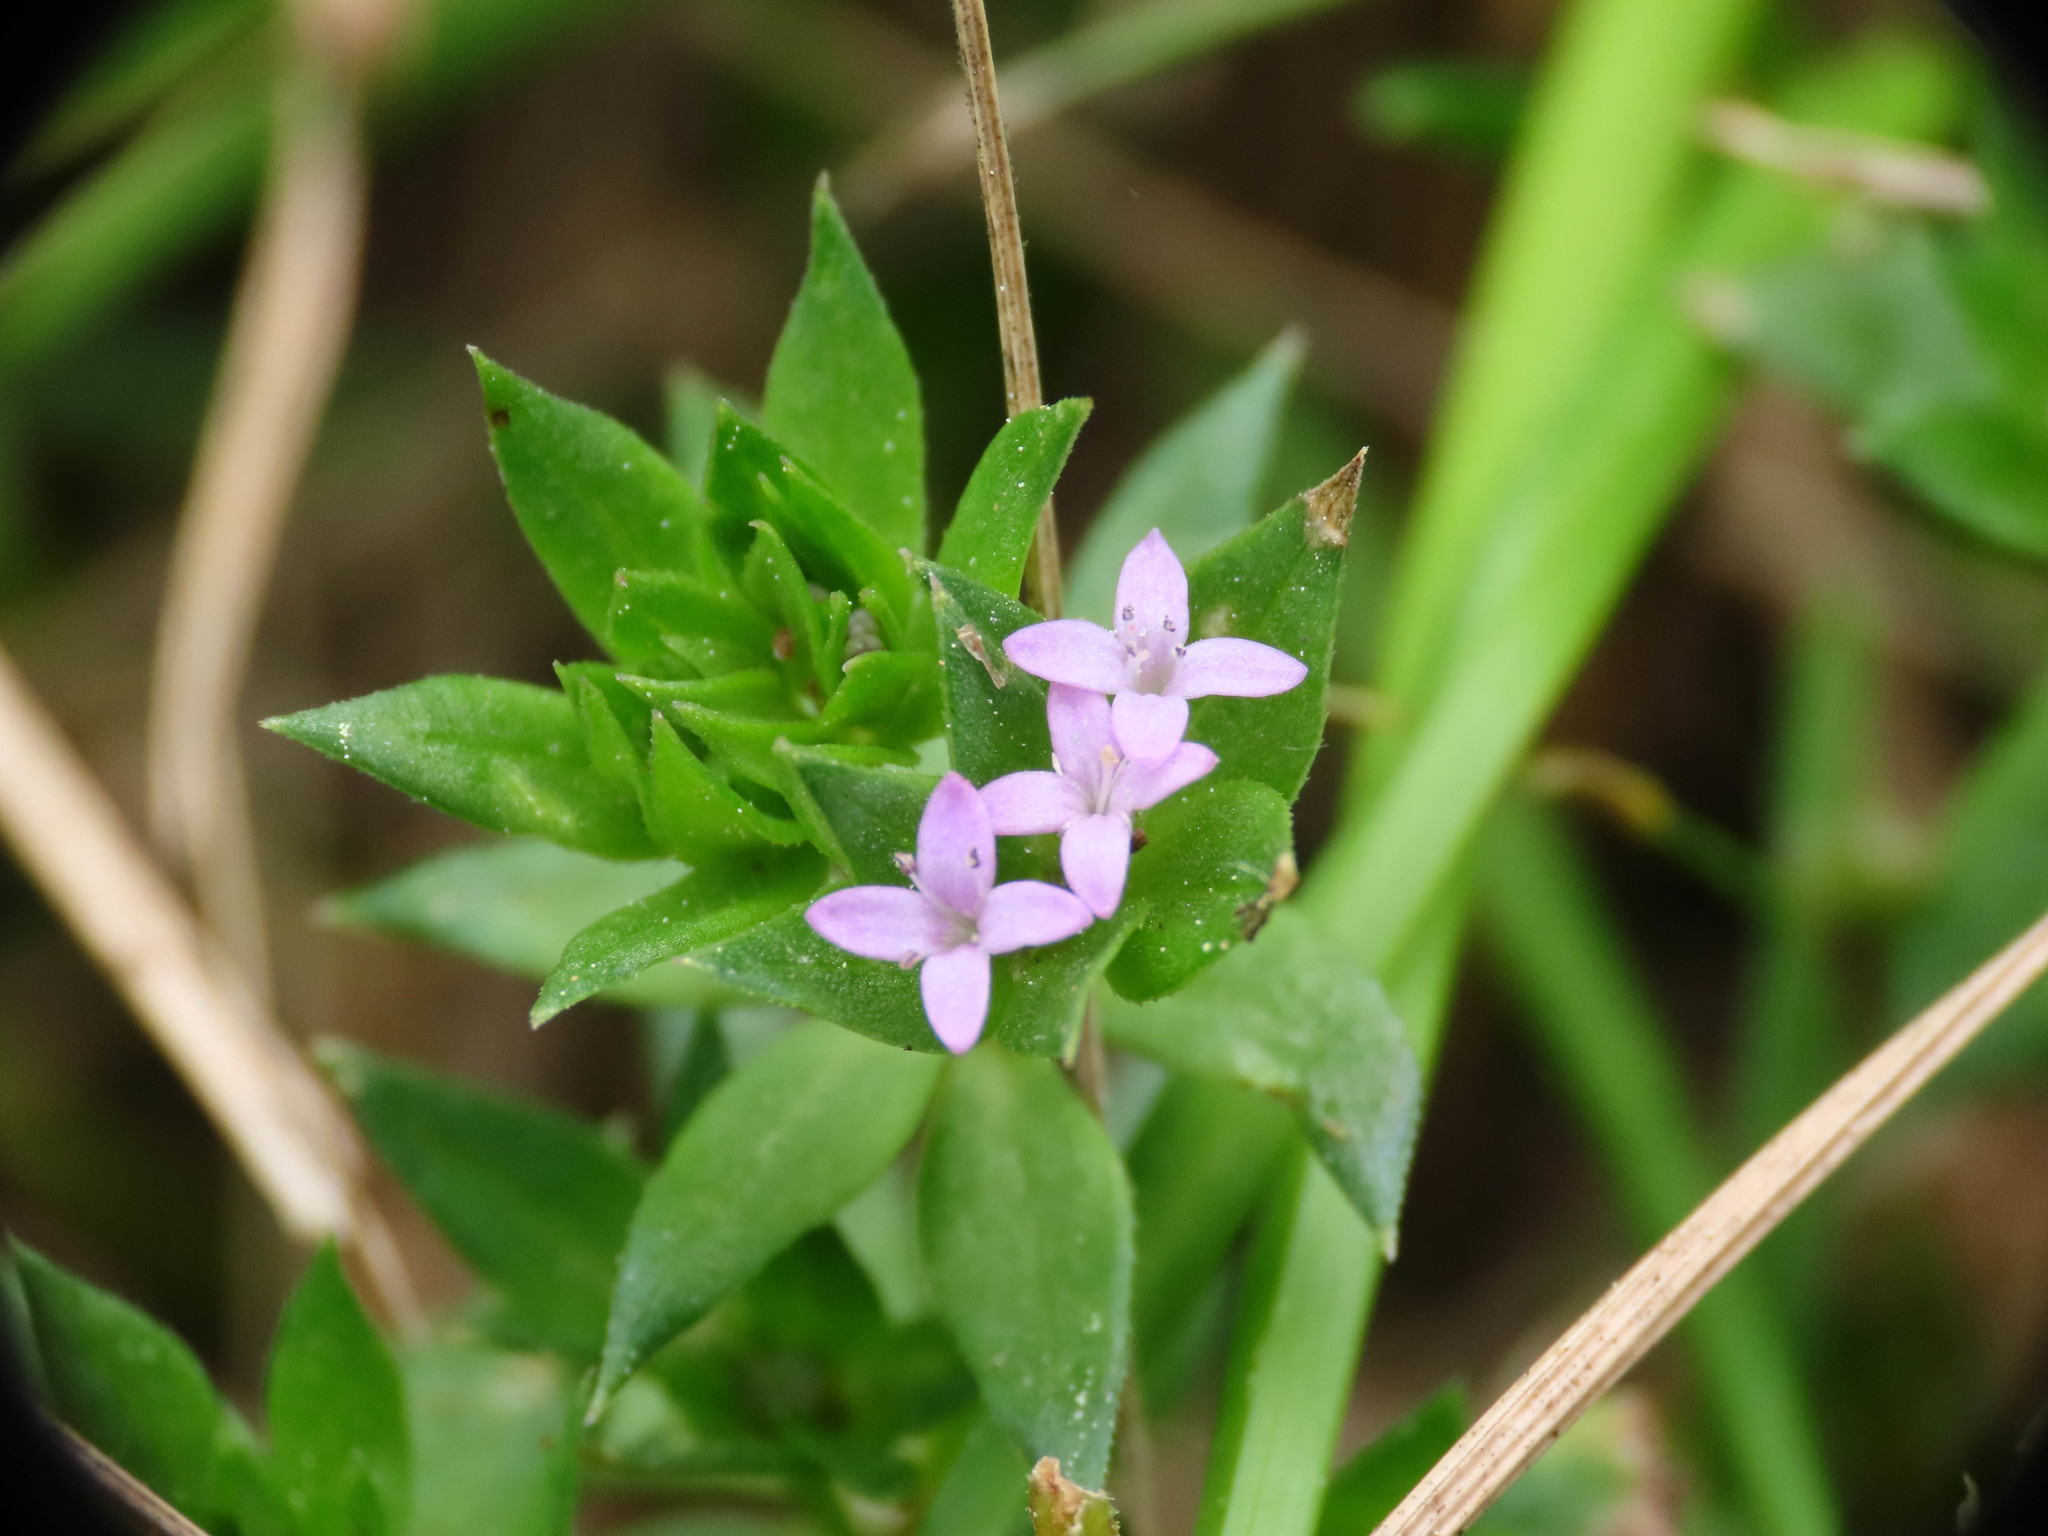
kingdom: Plantae
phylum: Tracheophyta
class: Magnoliopsida
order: Gentianales
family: Rubiaceae
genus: Sherardia
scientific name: Sherardia arvensis
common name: Field madder
